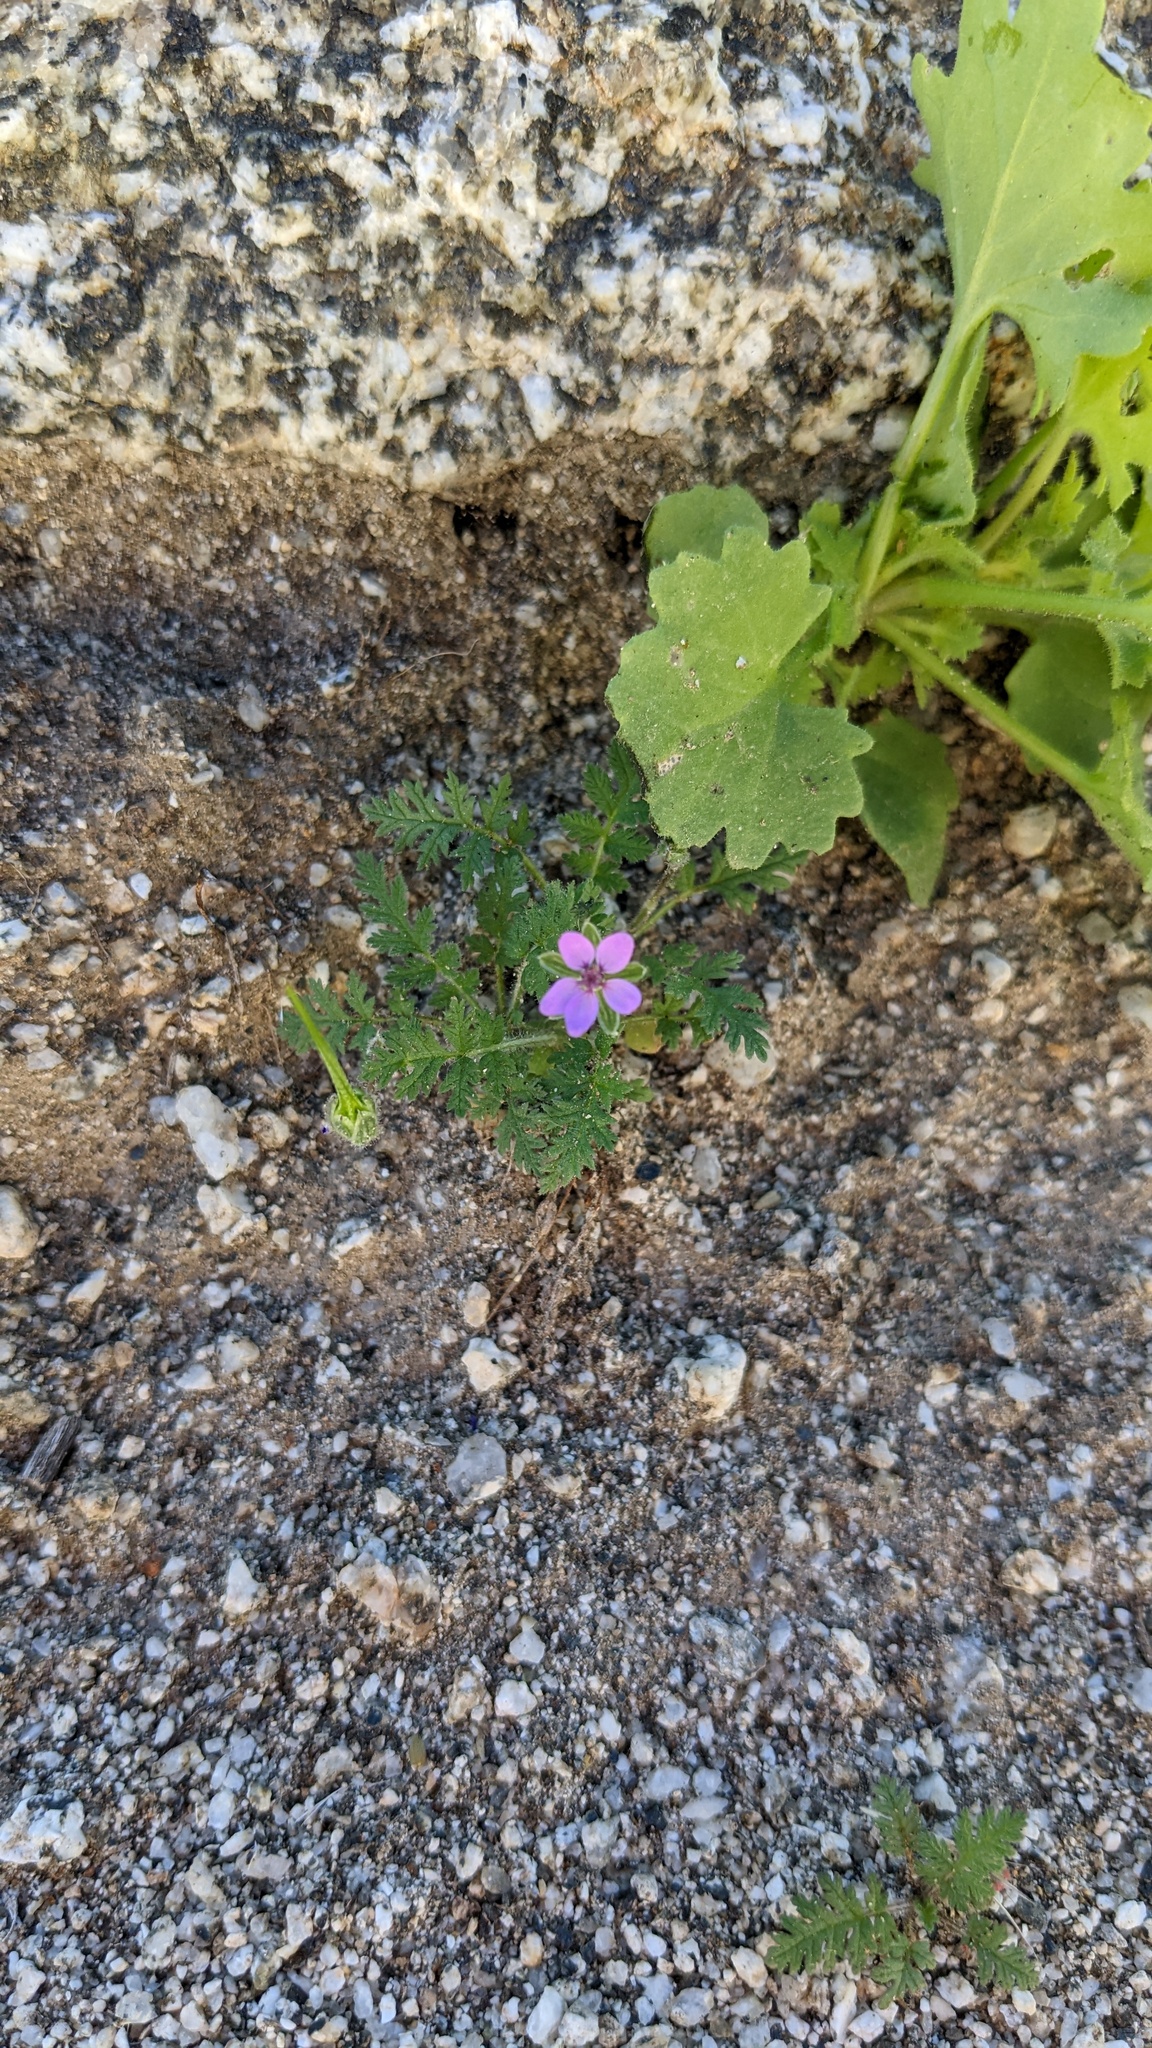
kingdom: Plantae
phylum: Tracheophyta
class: Magnoliopsida
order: Geraniales
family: Geraniaceae
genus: Erodium
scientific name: Erodium cicutarium
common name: Common stork's-bill
